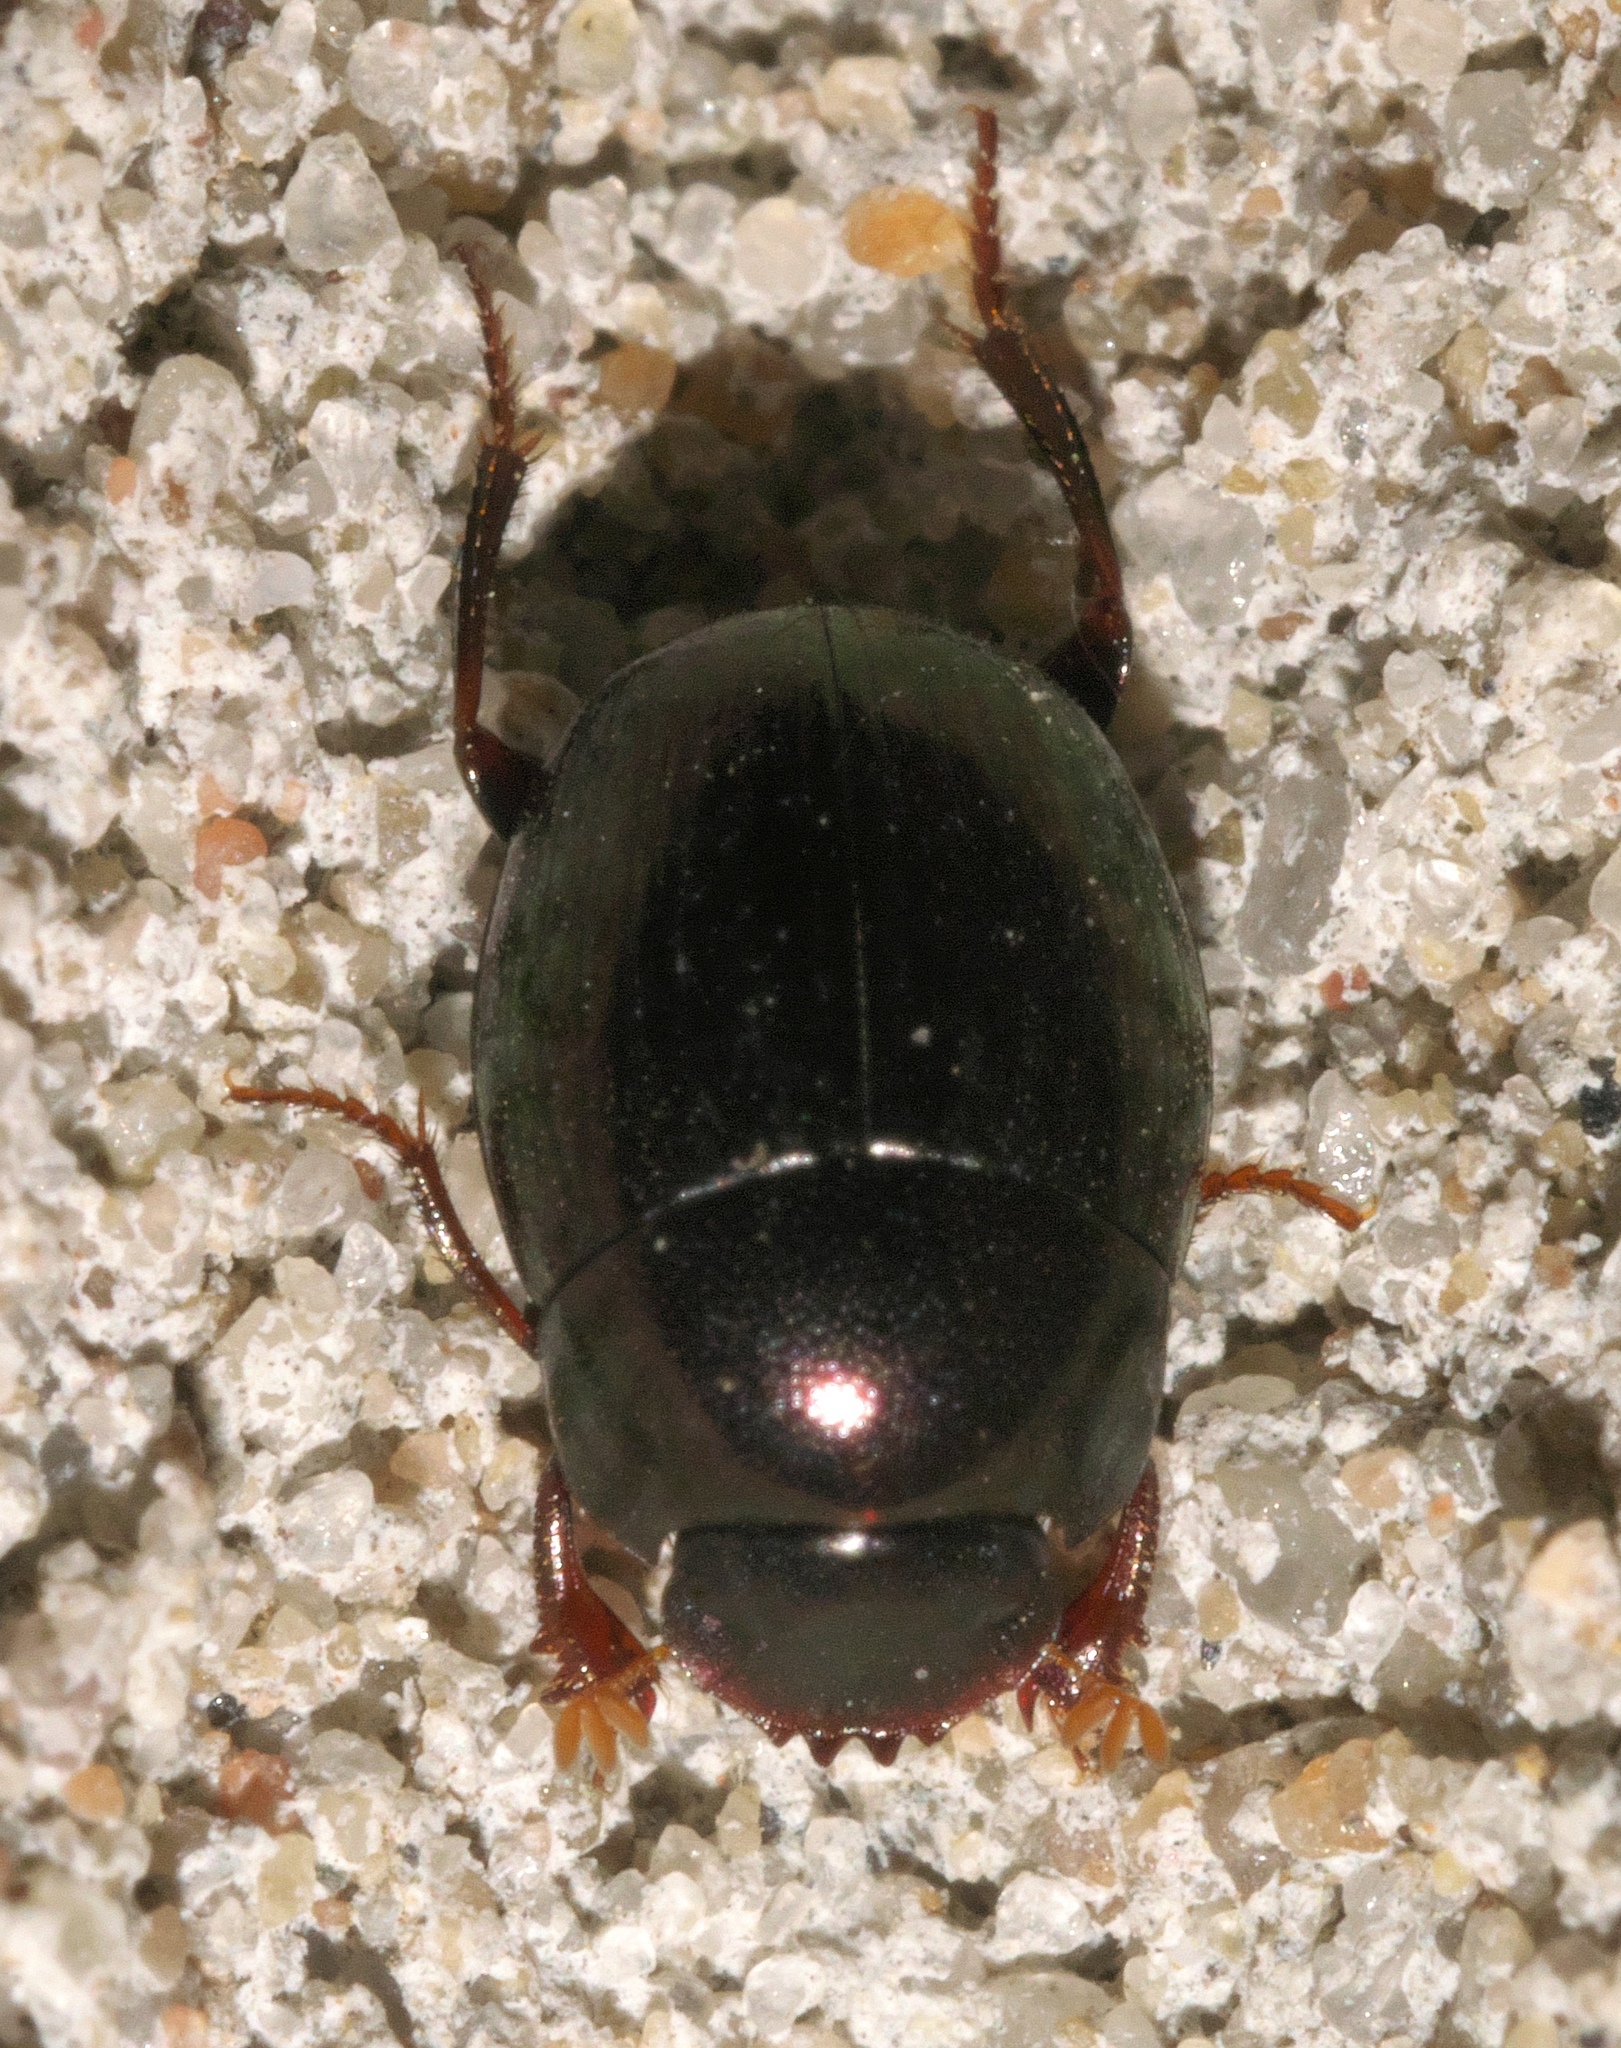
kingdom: Animalia
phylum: Arthropoda
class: Insecta
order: Coleoptera
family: Scarabaeidae
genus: Pseudocanthon
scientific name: Pseudocanthon perplexus
